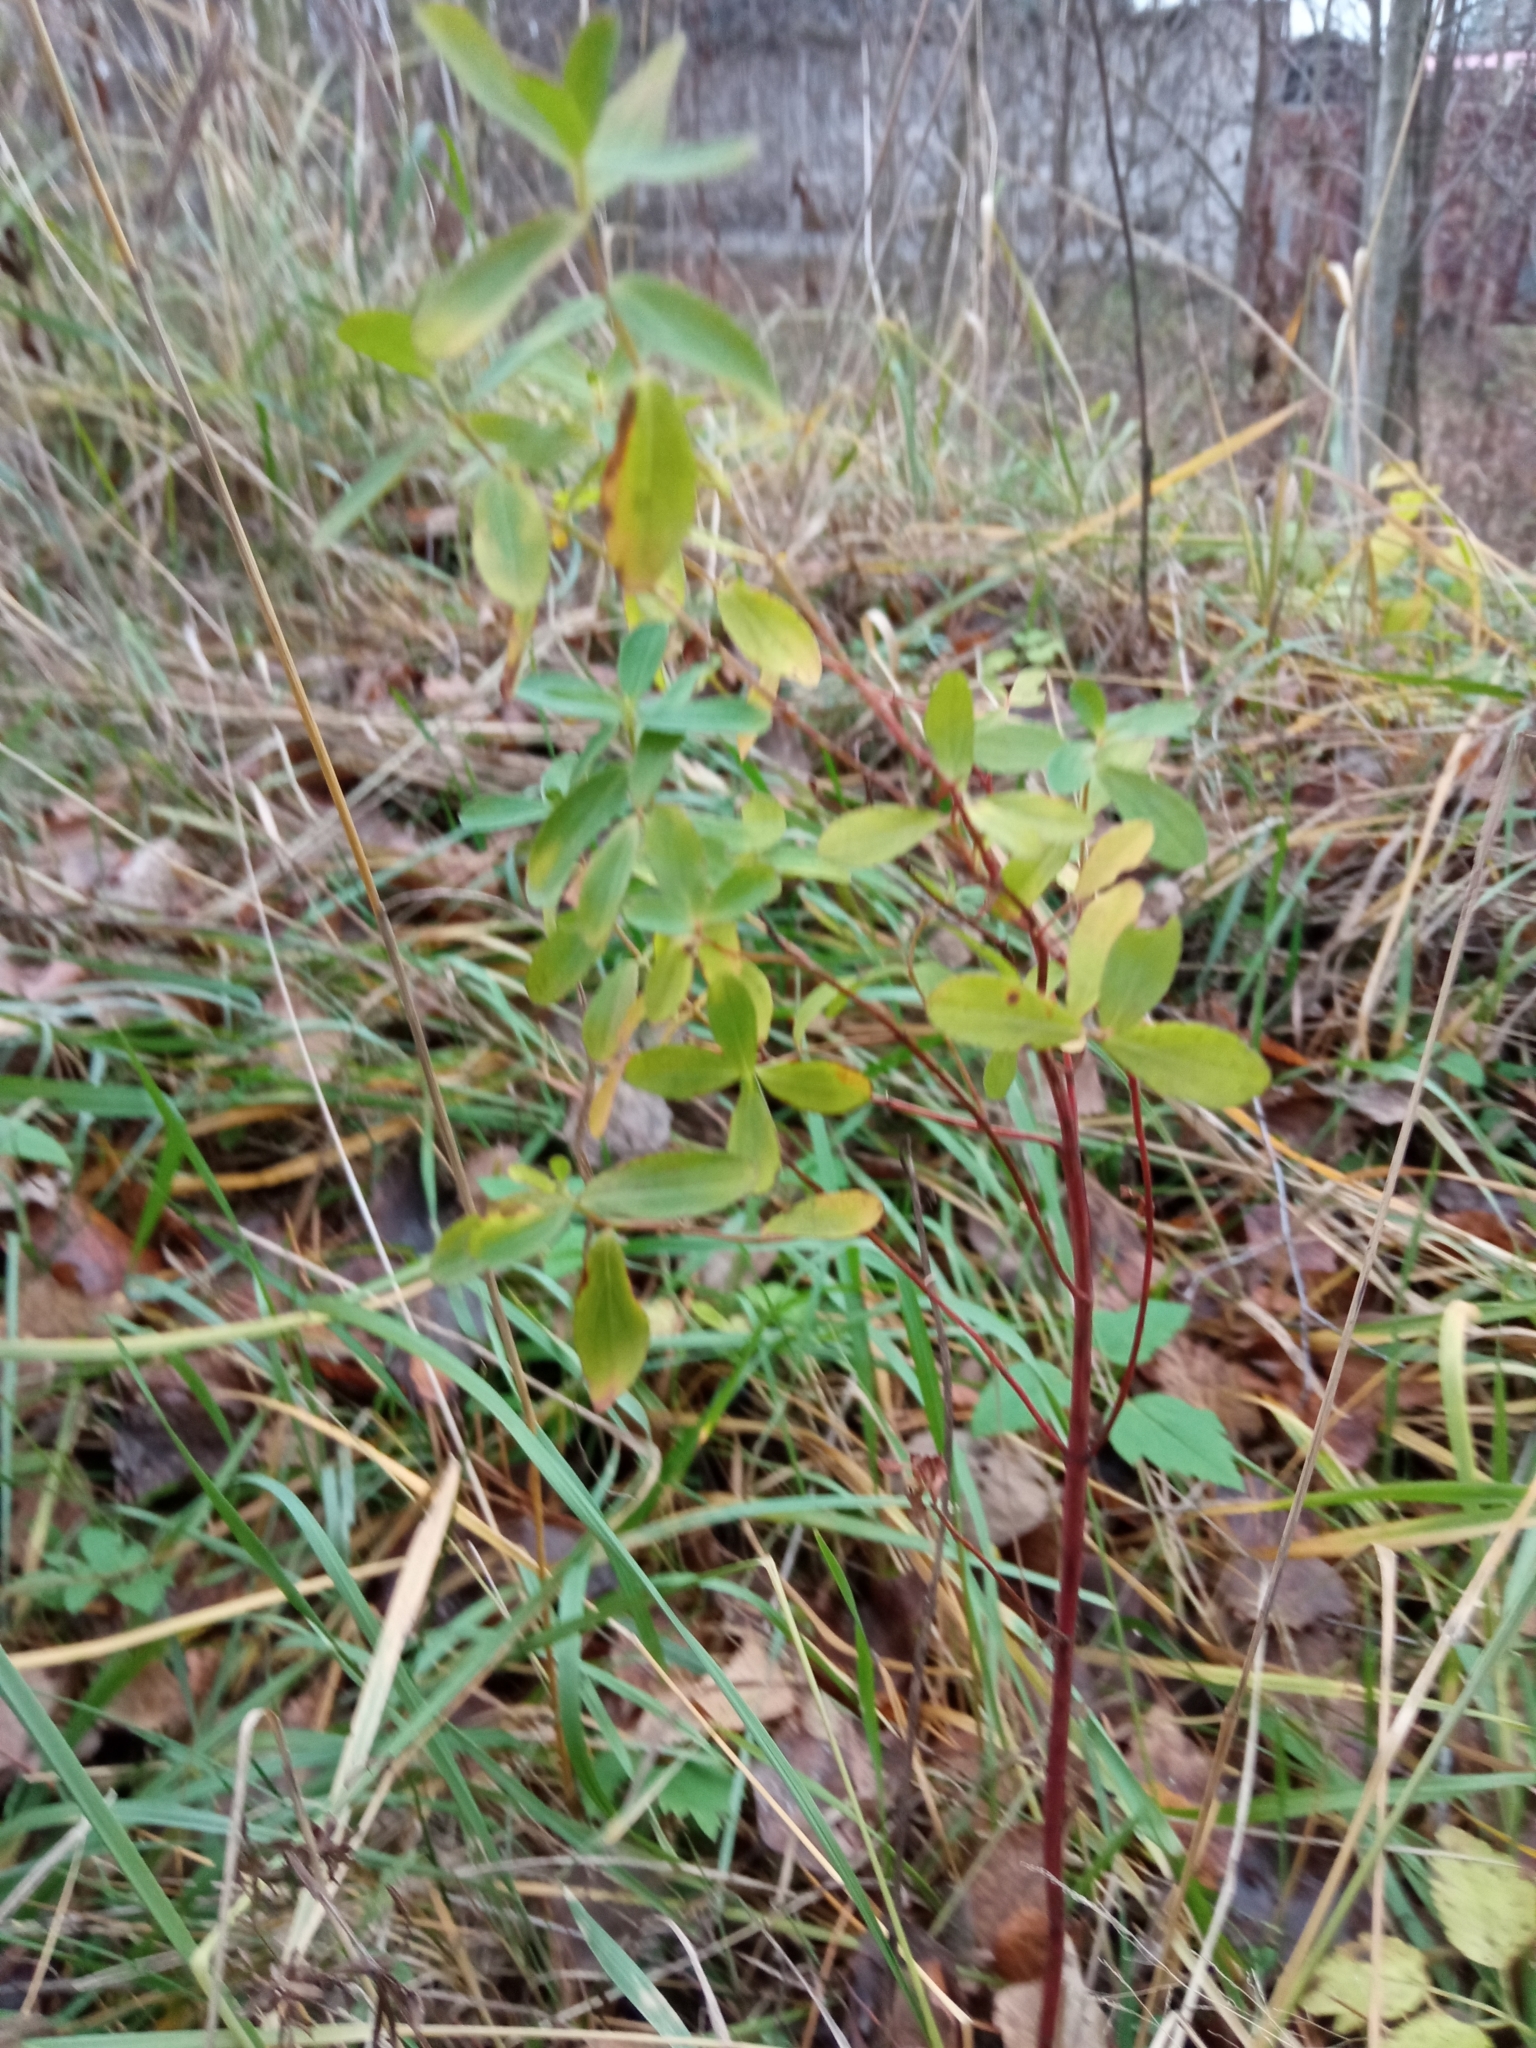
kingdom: Plantae
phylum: Tracheophyta
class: Magnoliopsida
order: Malpighiales
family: Hypericaceae
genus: Hypericum
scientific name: Hypericum perforatum
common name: Common st. johnswort
